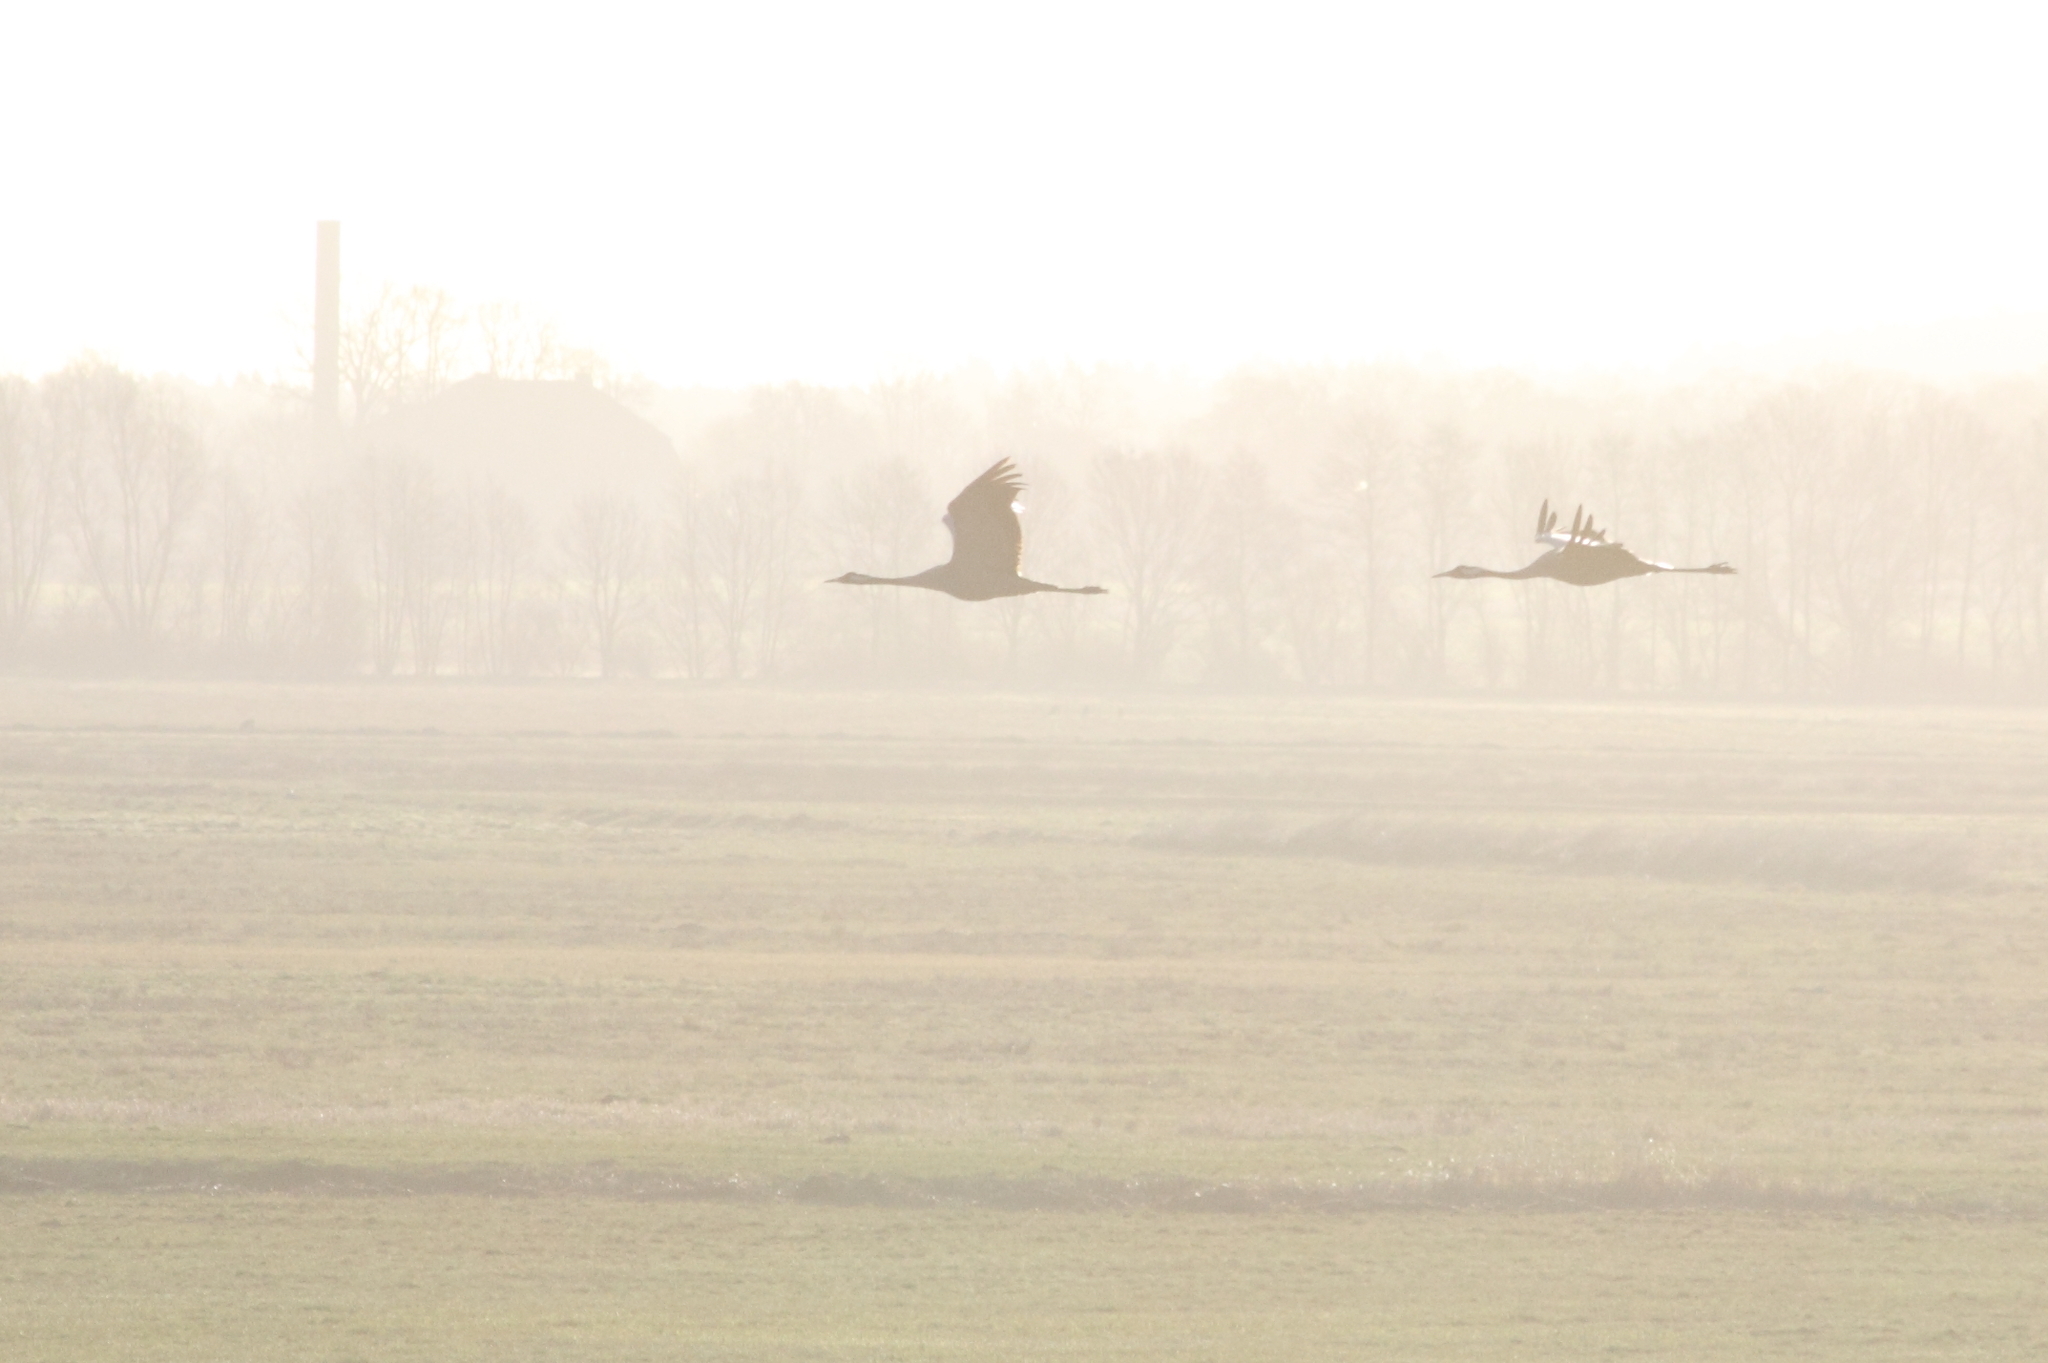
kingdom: Animalia
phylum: Chordata
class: Aves
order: Gruiformes
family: Gruidae
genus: Grus
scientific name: Grus grus
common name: Common crane
